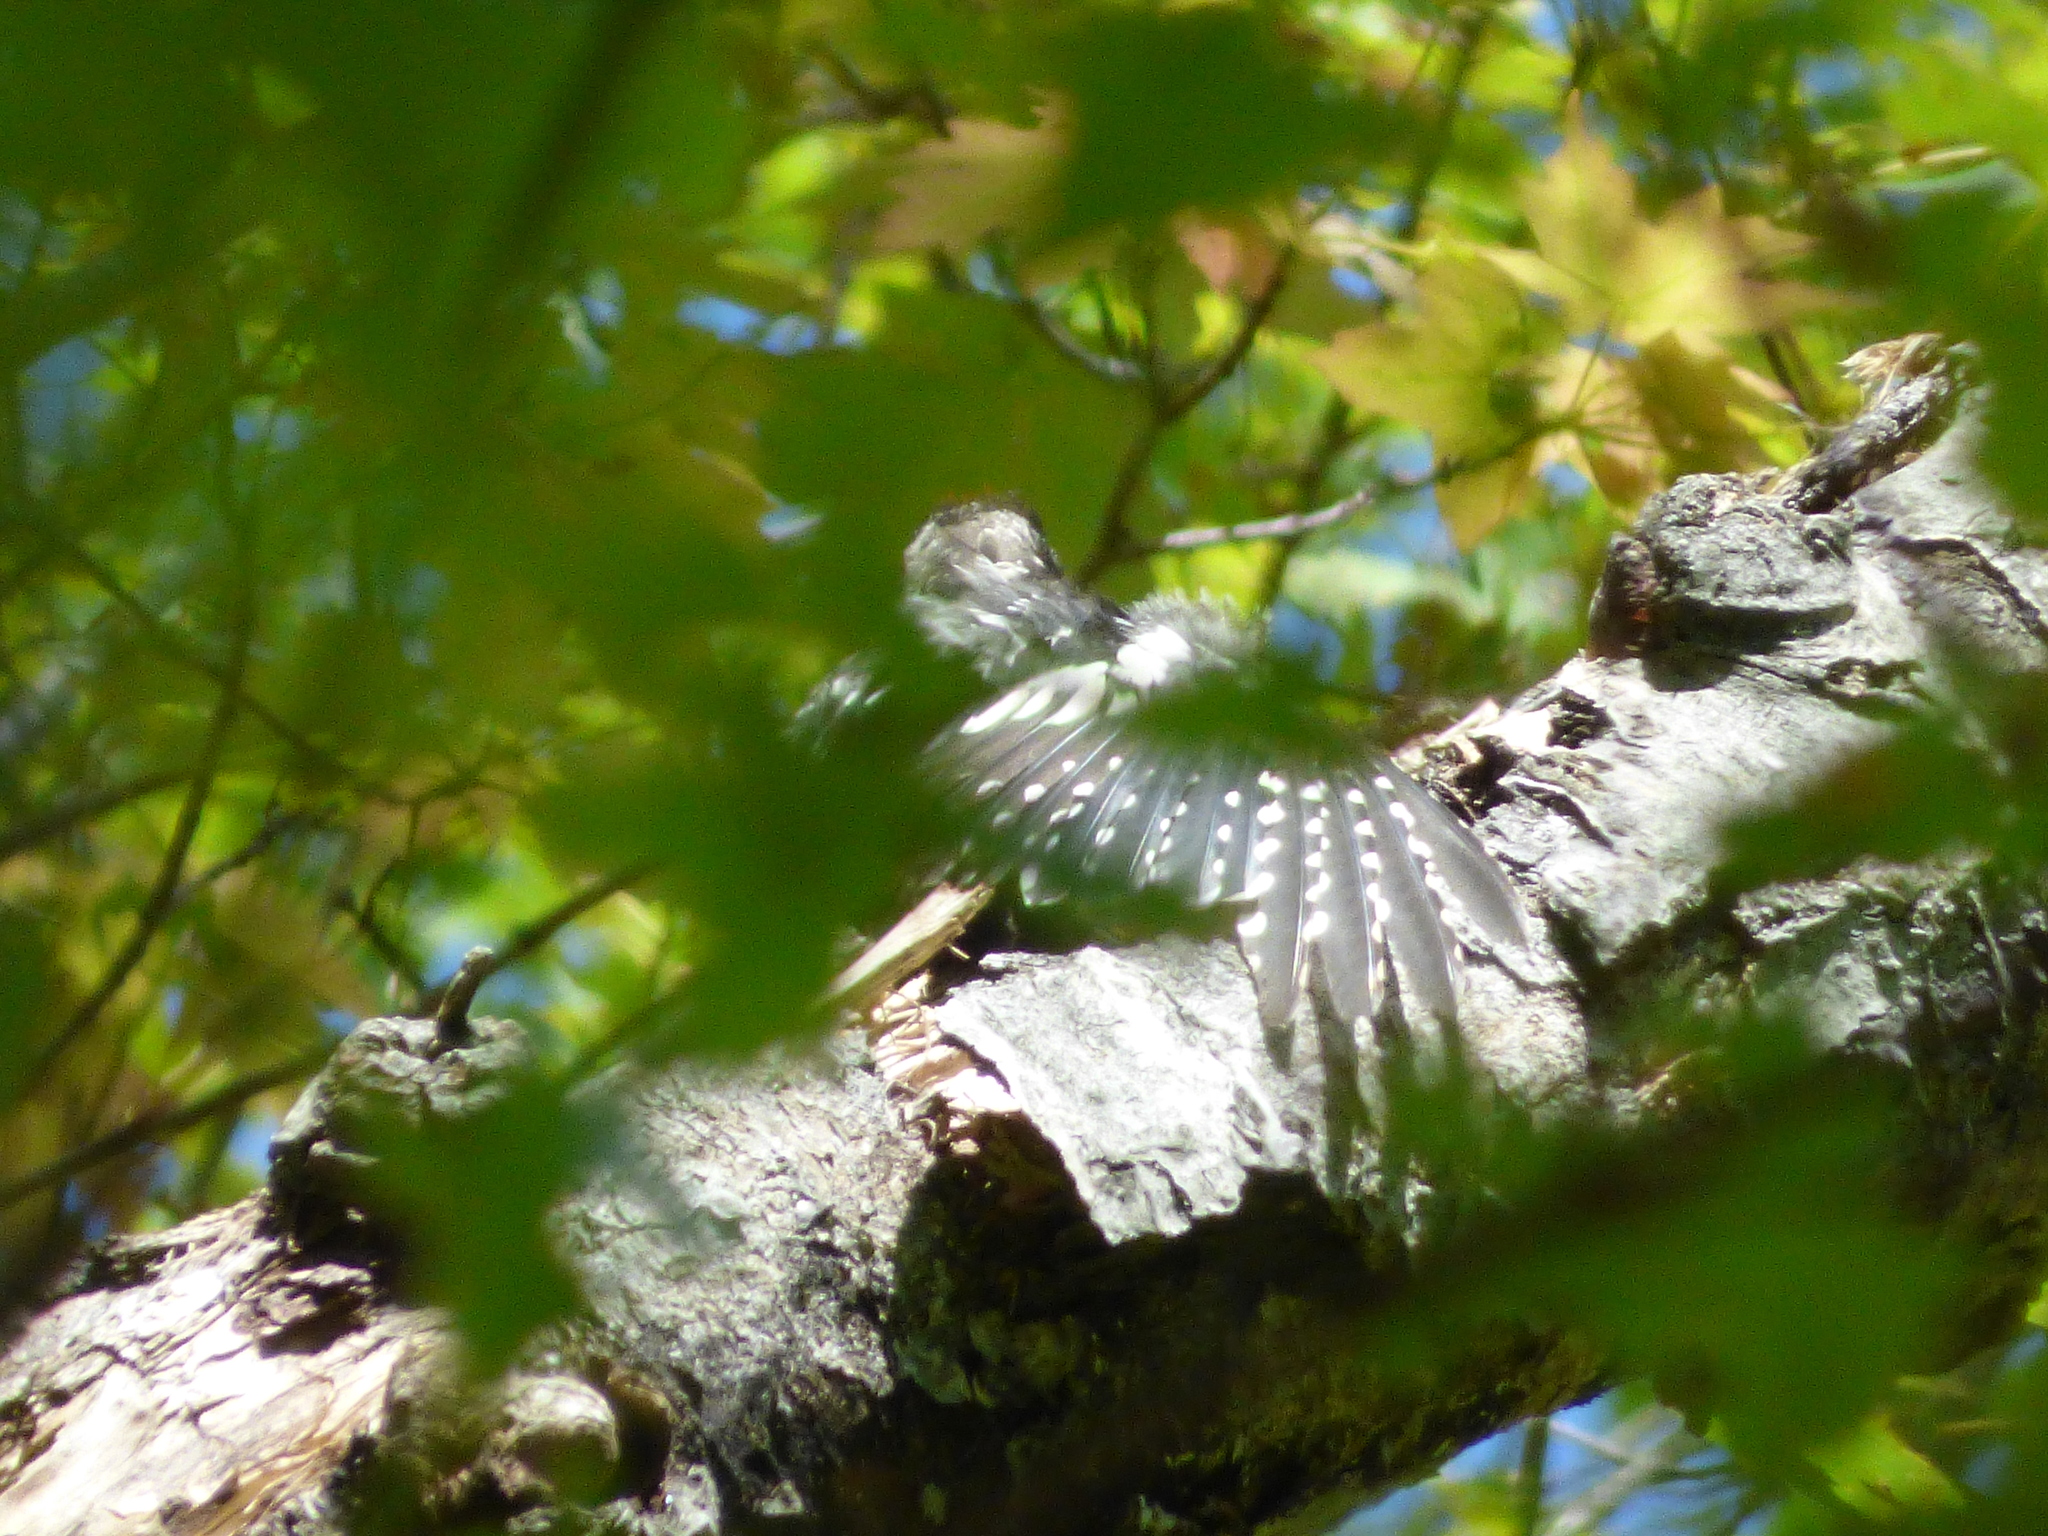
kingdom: Animalia
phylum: Chordata
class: Aves
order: Piciformes
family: Picidae
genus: Sphyrapicus
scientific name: Sphyrapicus varius
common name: Yellow-bellied sapsucker
